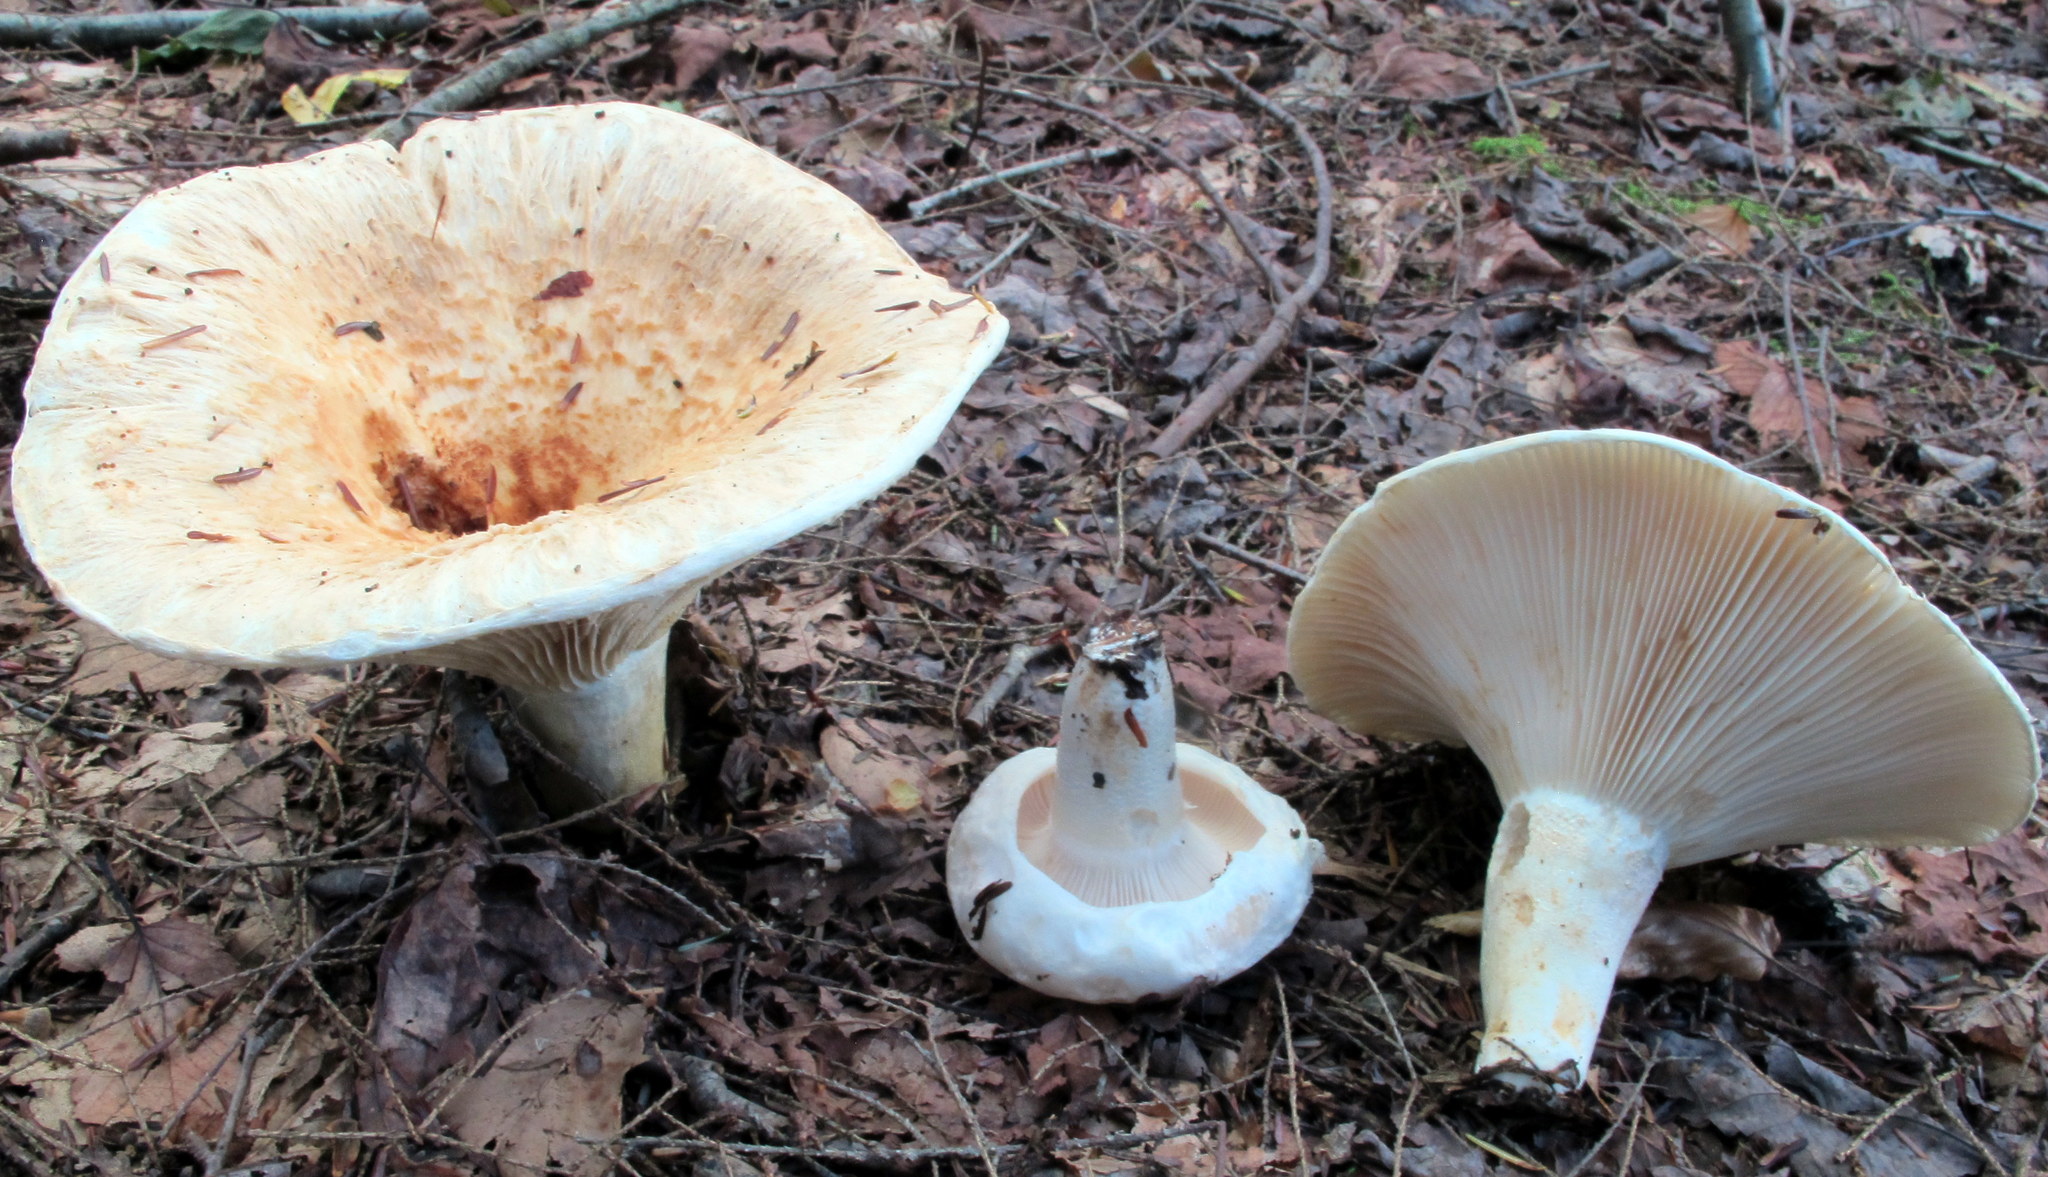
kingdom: Fungi
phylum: Basidiomycota
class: Agaricomycetes
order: Russulales
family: Russulaceae
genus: Lactifluus
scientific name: Lactifluus
